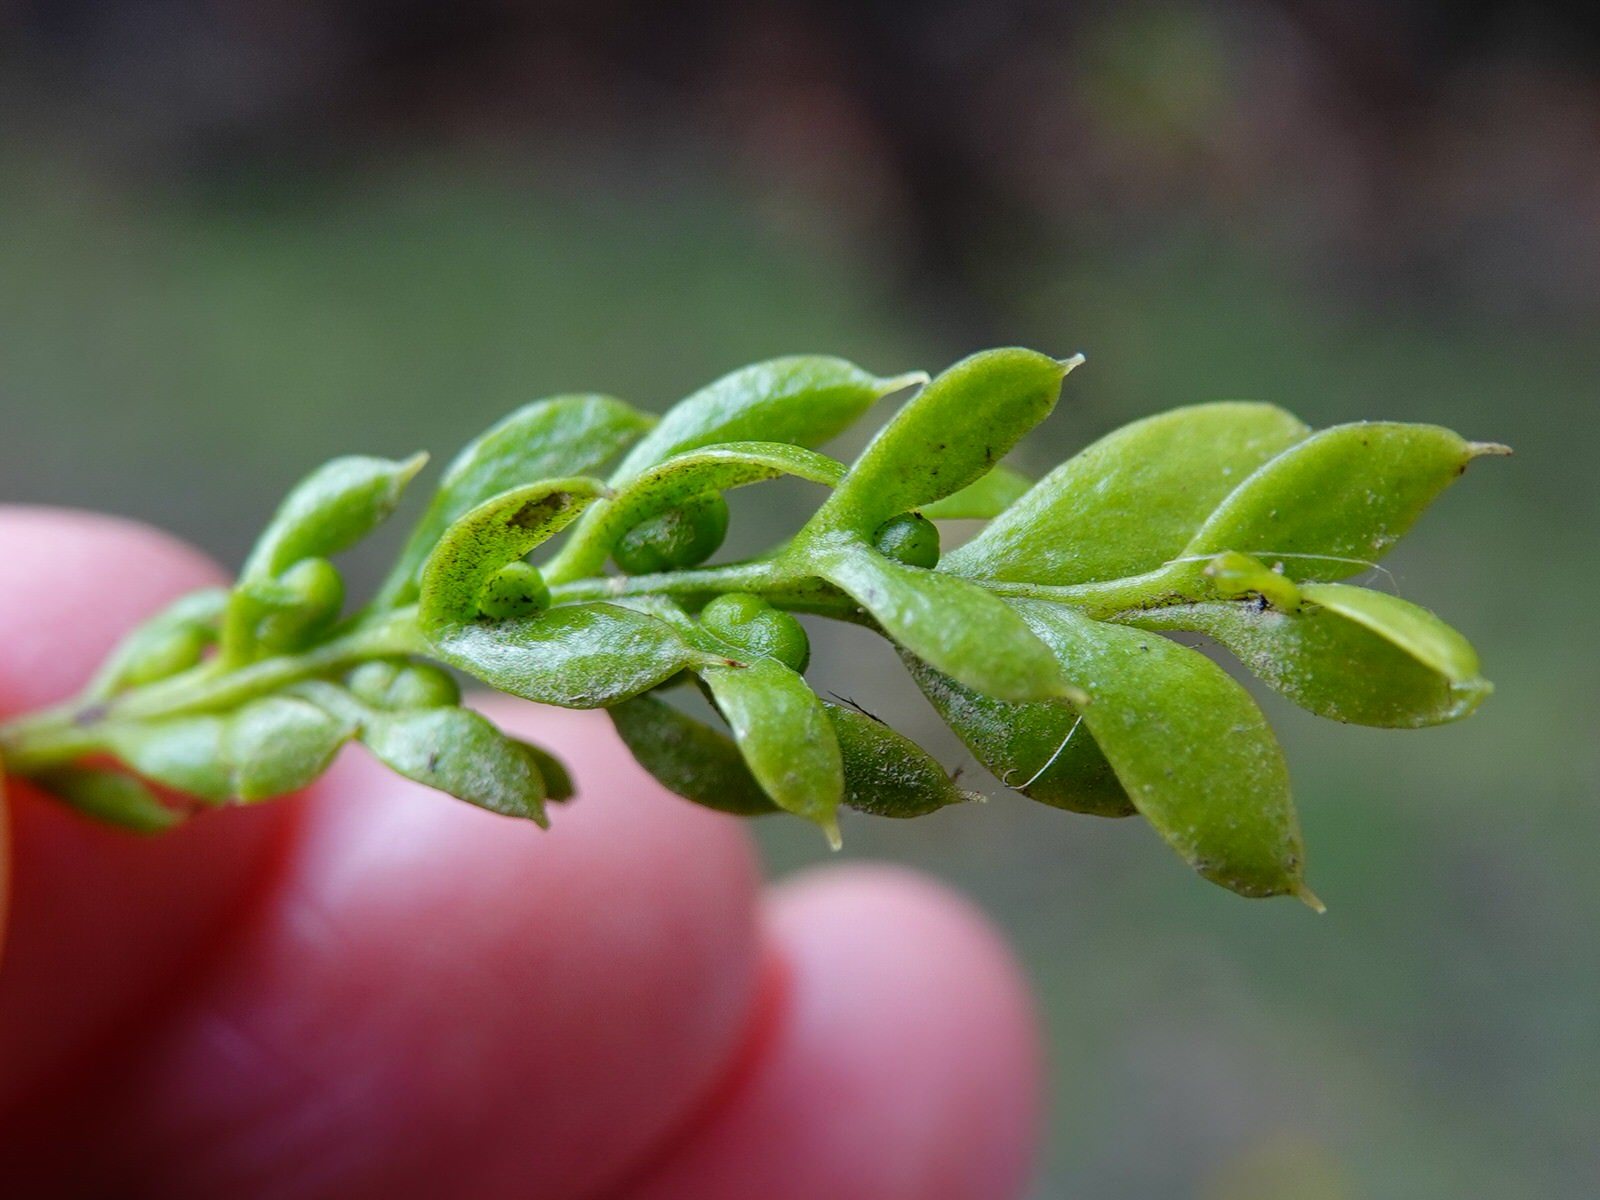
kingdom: Plantae
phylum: Tracheophyta
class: Polypodiopsida
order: Psilotales
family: Psilotaceae
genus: Tmesipteris
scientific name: Tmesipteris lanceolata
